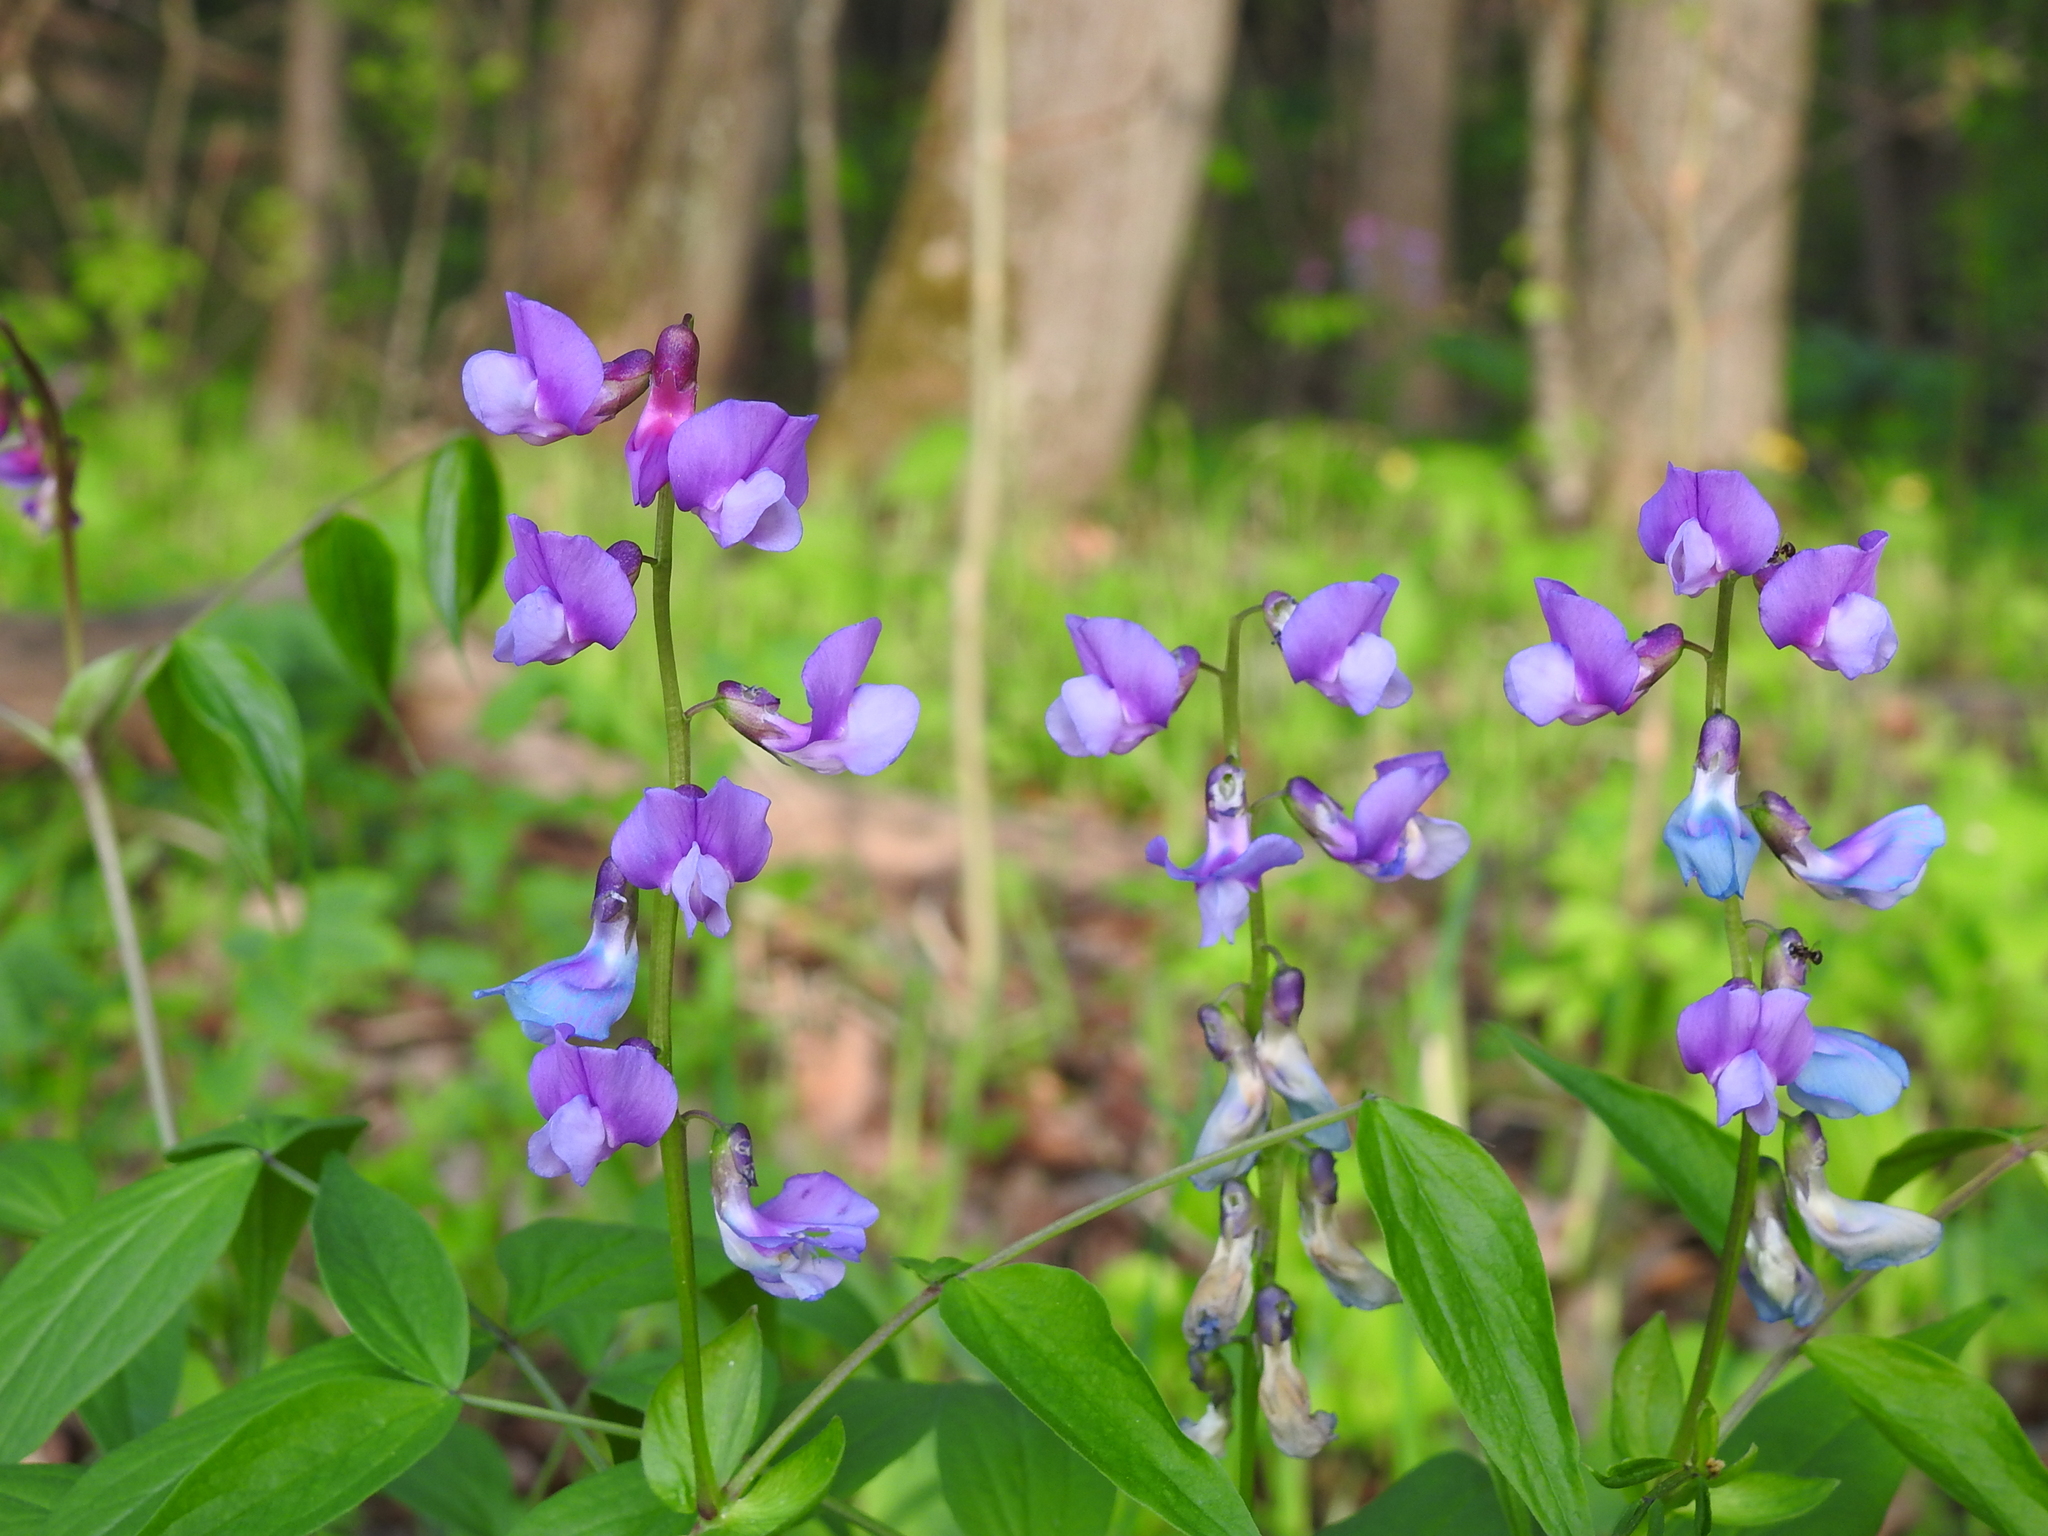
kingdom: Plantae
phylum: Tracheophyta
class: Magnoliopsida
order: Fabales
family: Fabaceae
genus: Lathyrus
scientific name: Lathyrus vernus
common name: Spring pea
